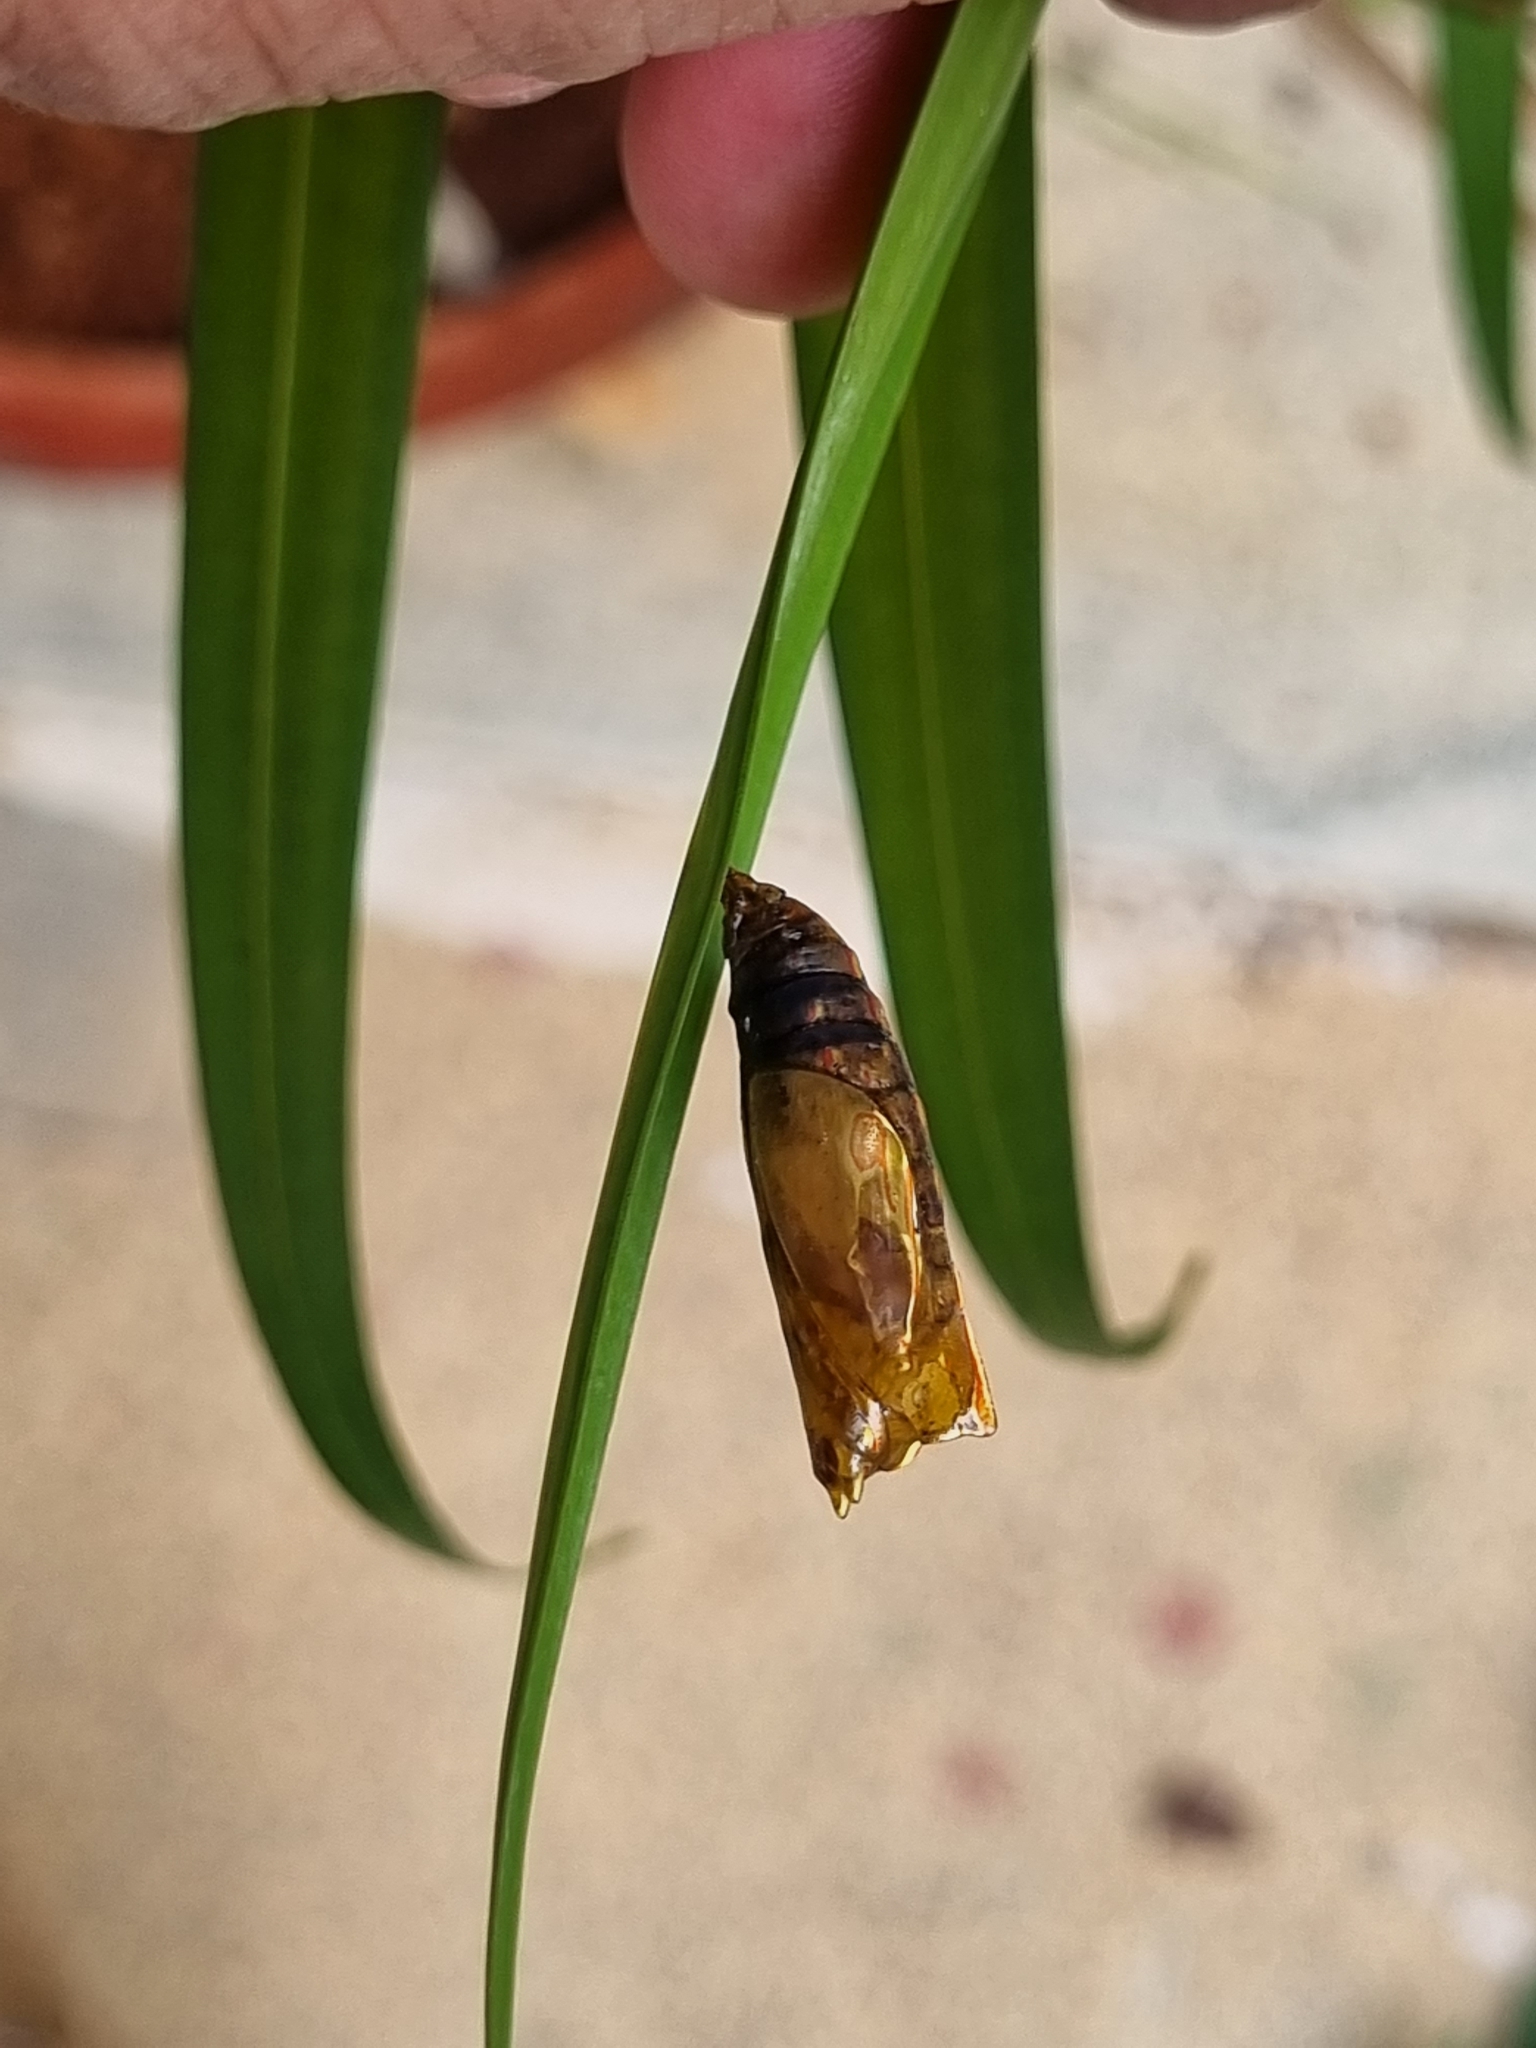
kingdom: Animalia
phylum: Arthropoda
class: Insecta
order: Lepidoptera
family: Nymphalidae
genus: Elymnias
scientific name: Elymnias caudata
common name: Tailed palmfly
